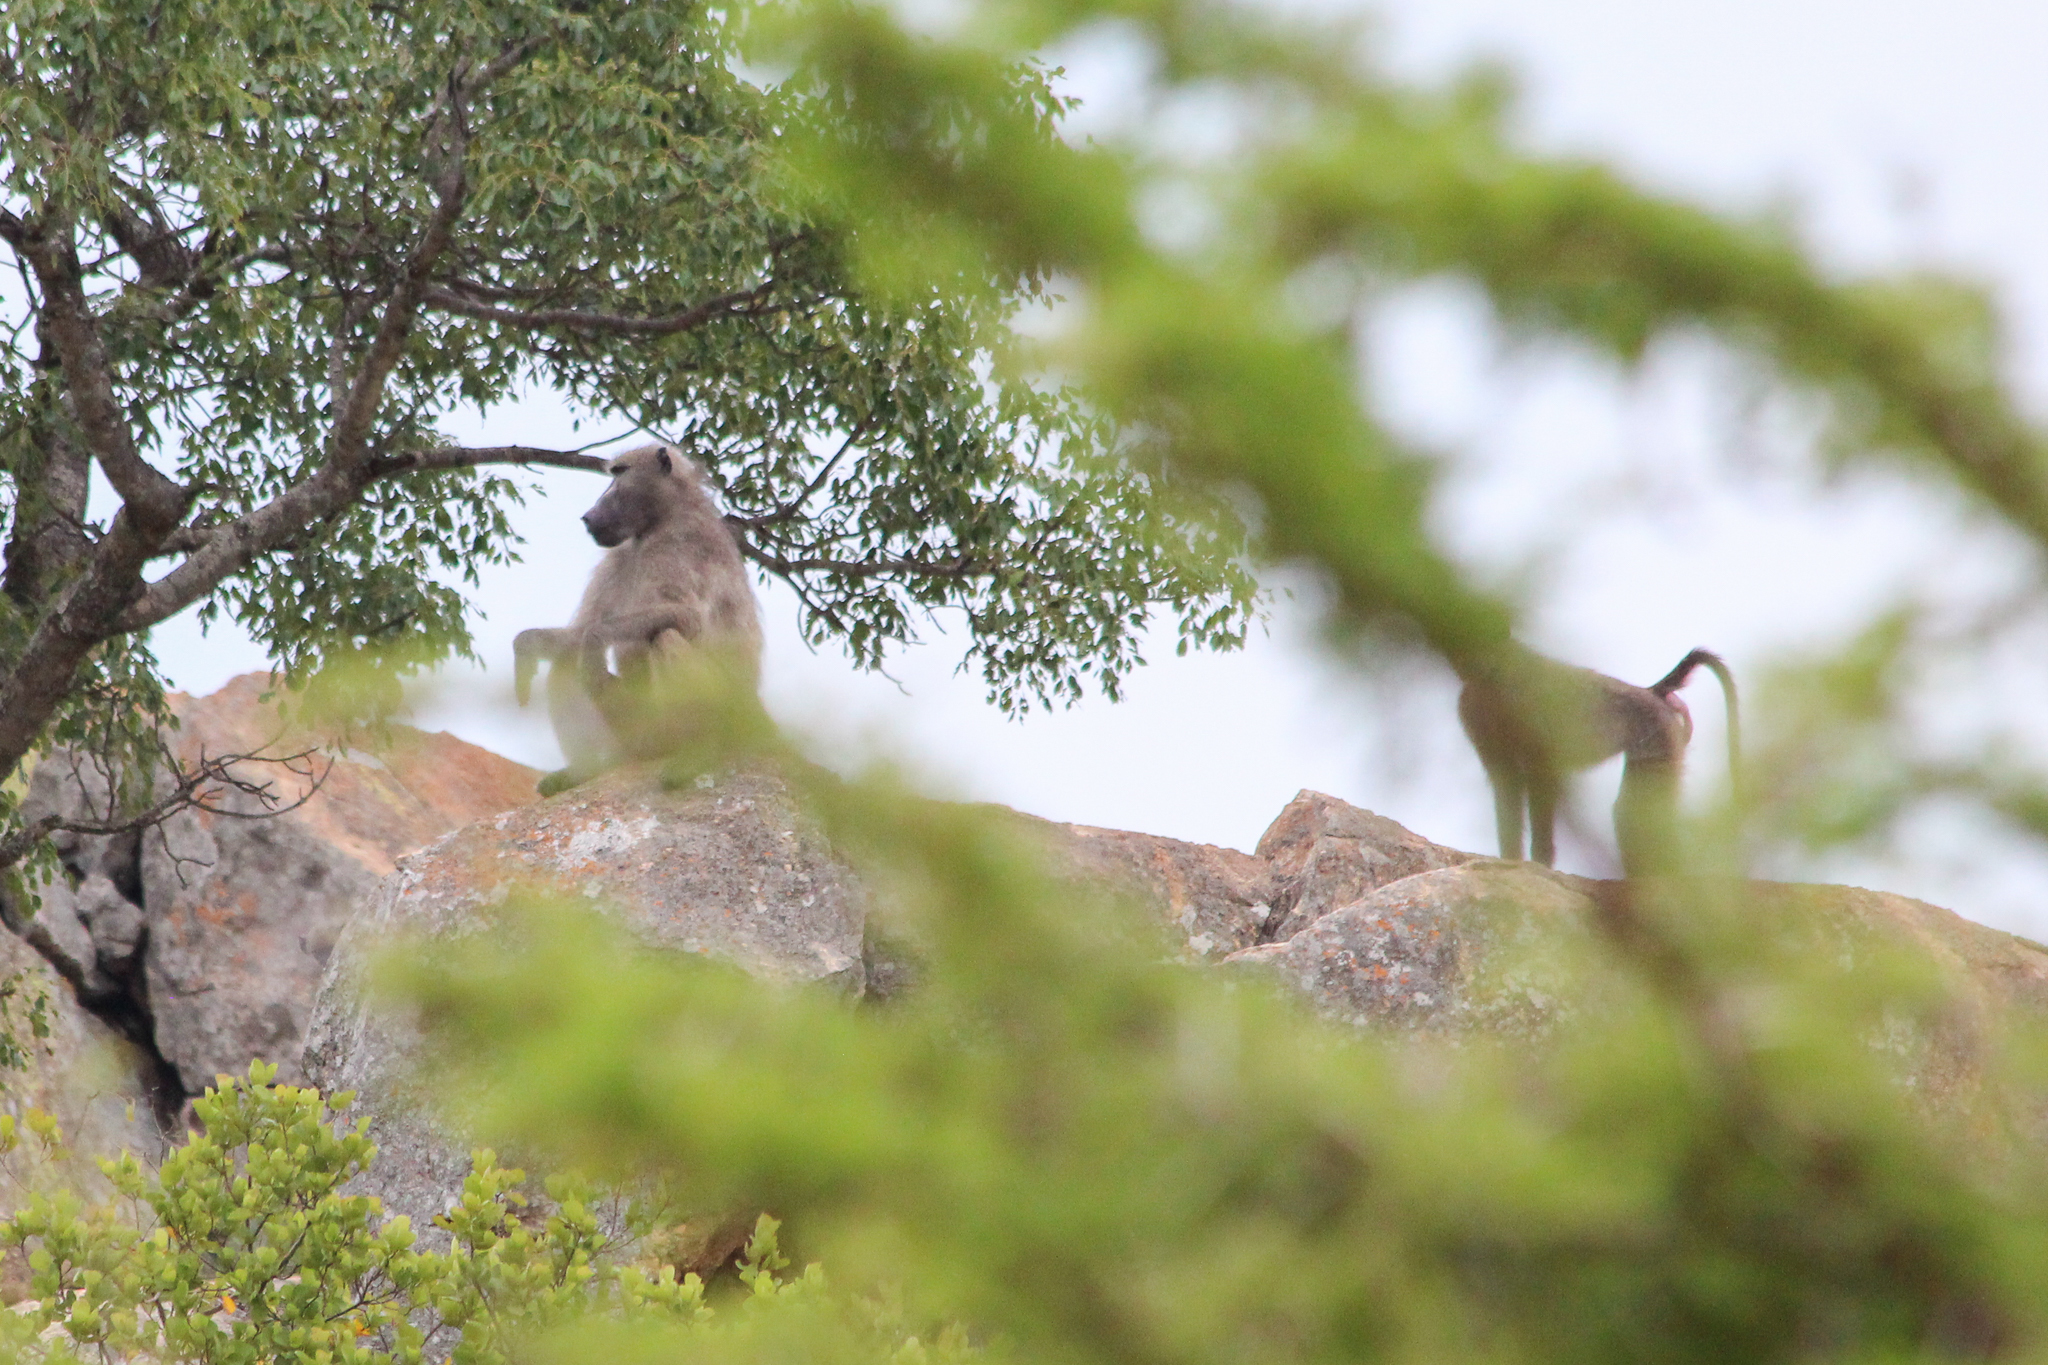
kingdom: Animalia
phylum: Chordata
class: Mammalia
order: Primates
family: Cercopithecidae
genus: Papio
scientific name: Papio ursinus
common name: Chacma baboon
